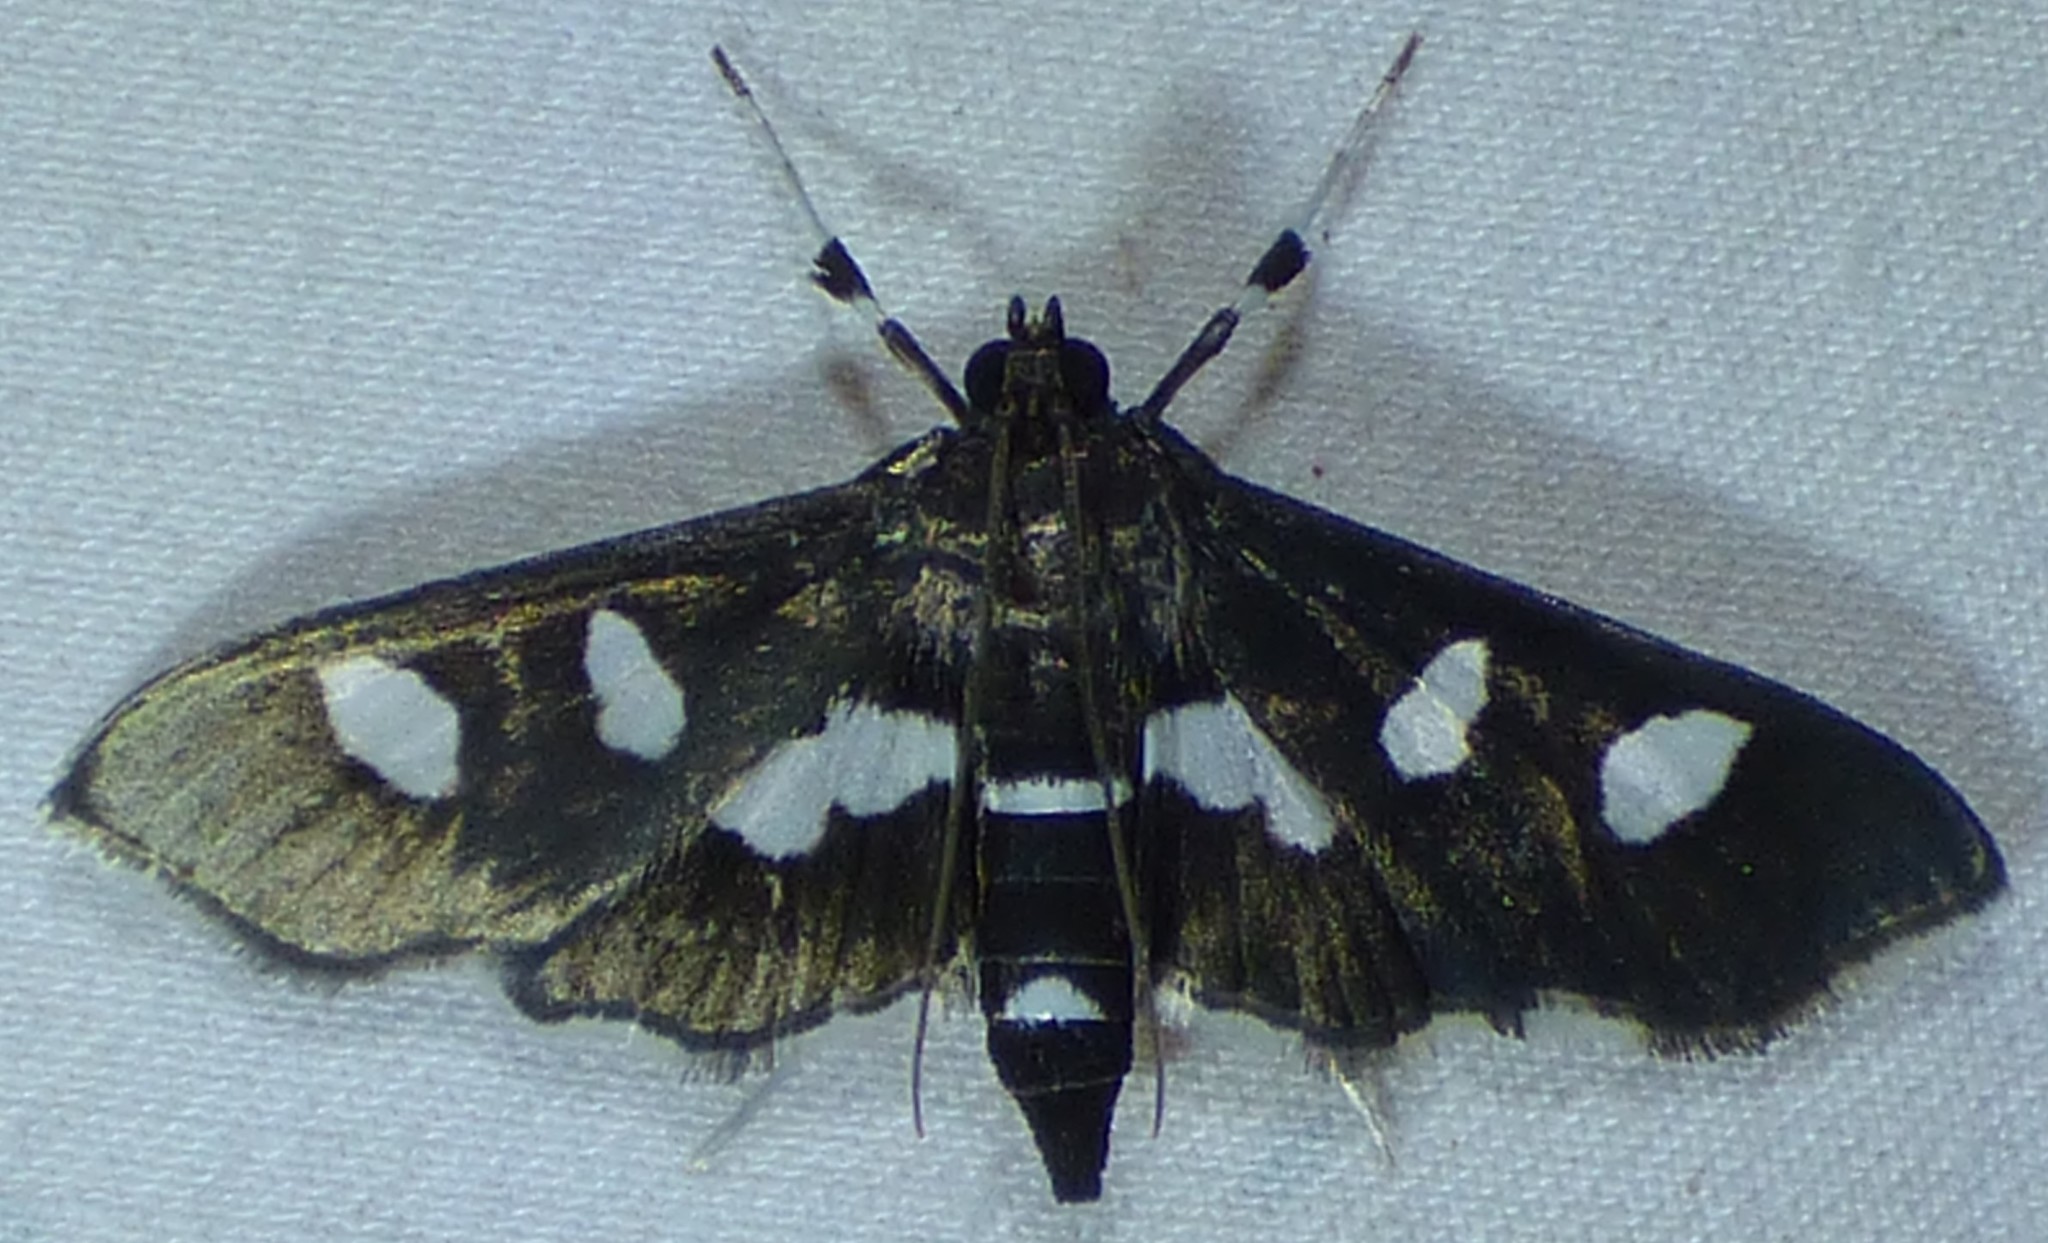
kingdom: Animalia
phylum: Arthropoda
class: Insecta
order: Lepidoptera
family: Crambidae
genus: Desmia
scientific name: Desmia funeralis
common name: Grape leaf folder moth
